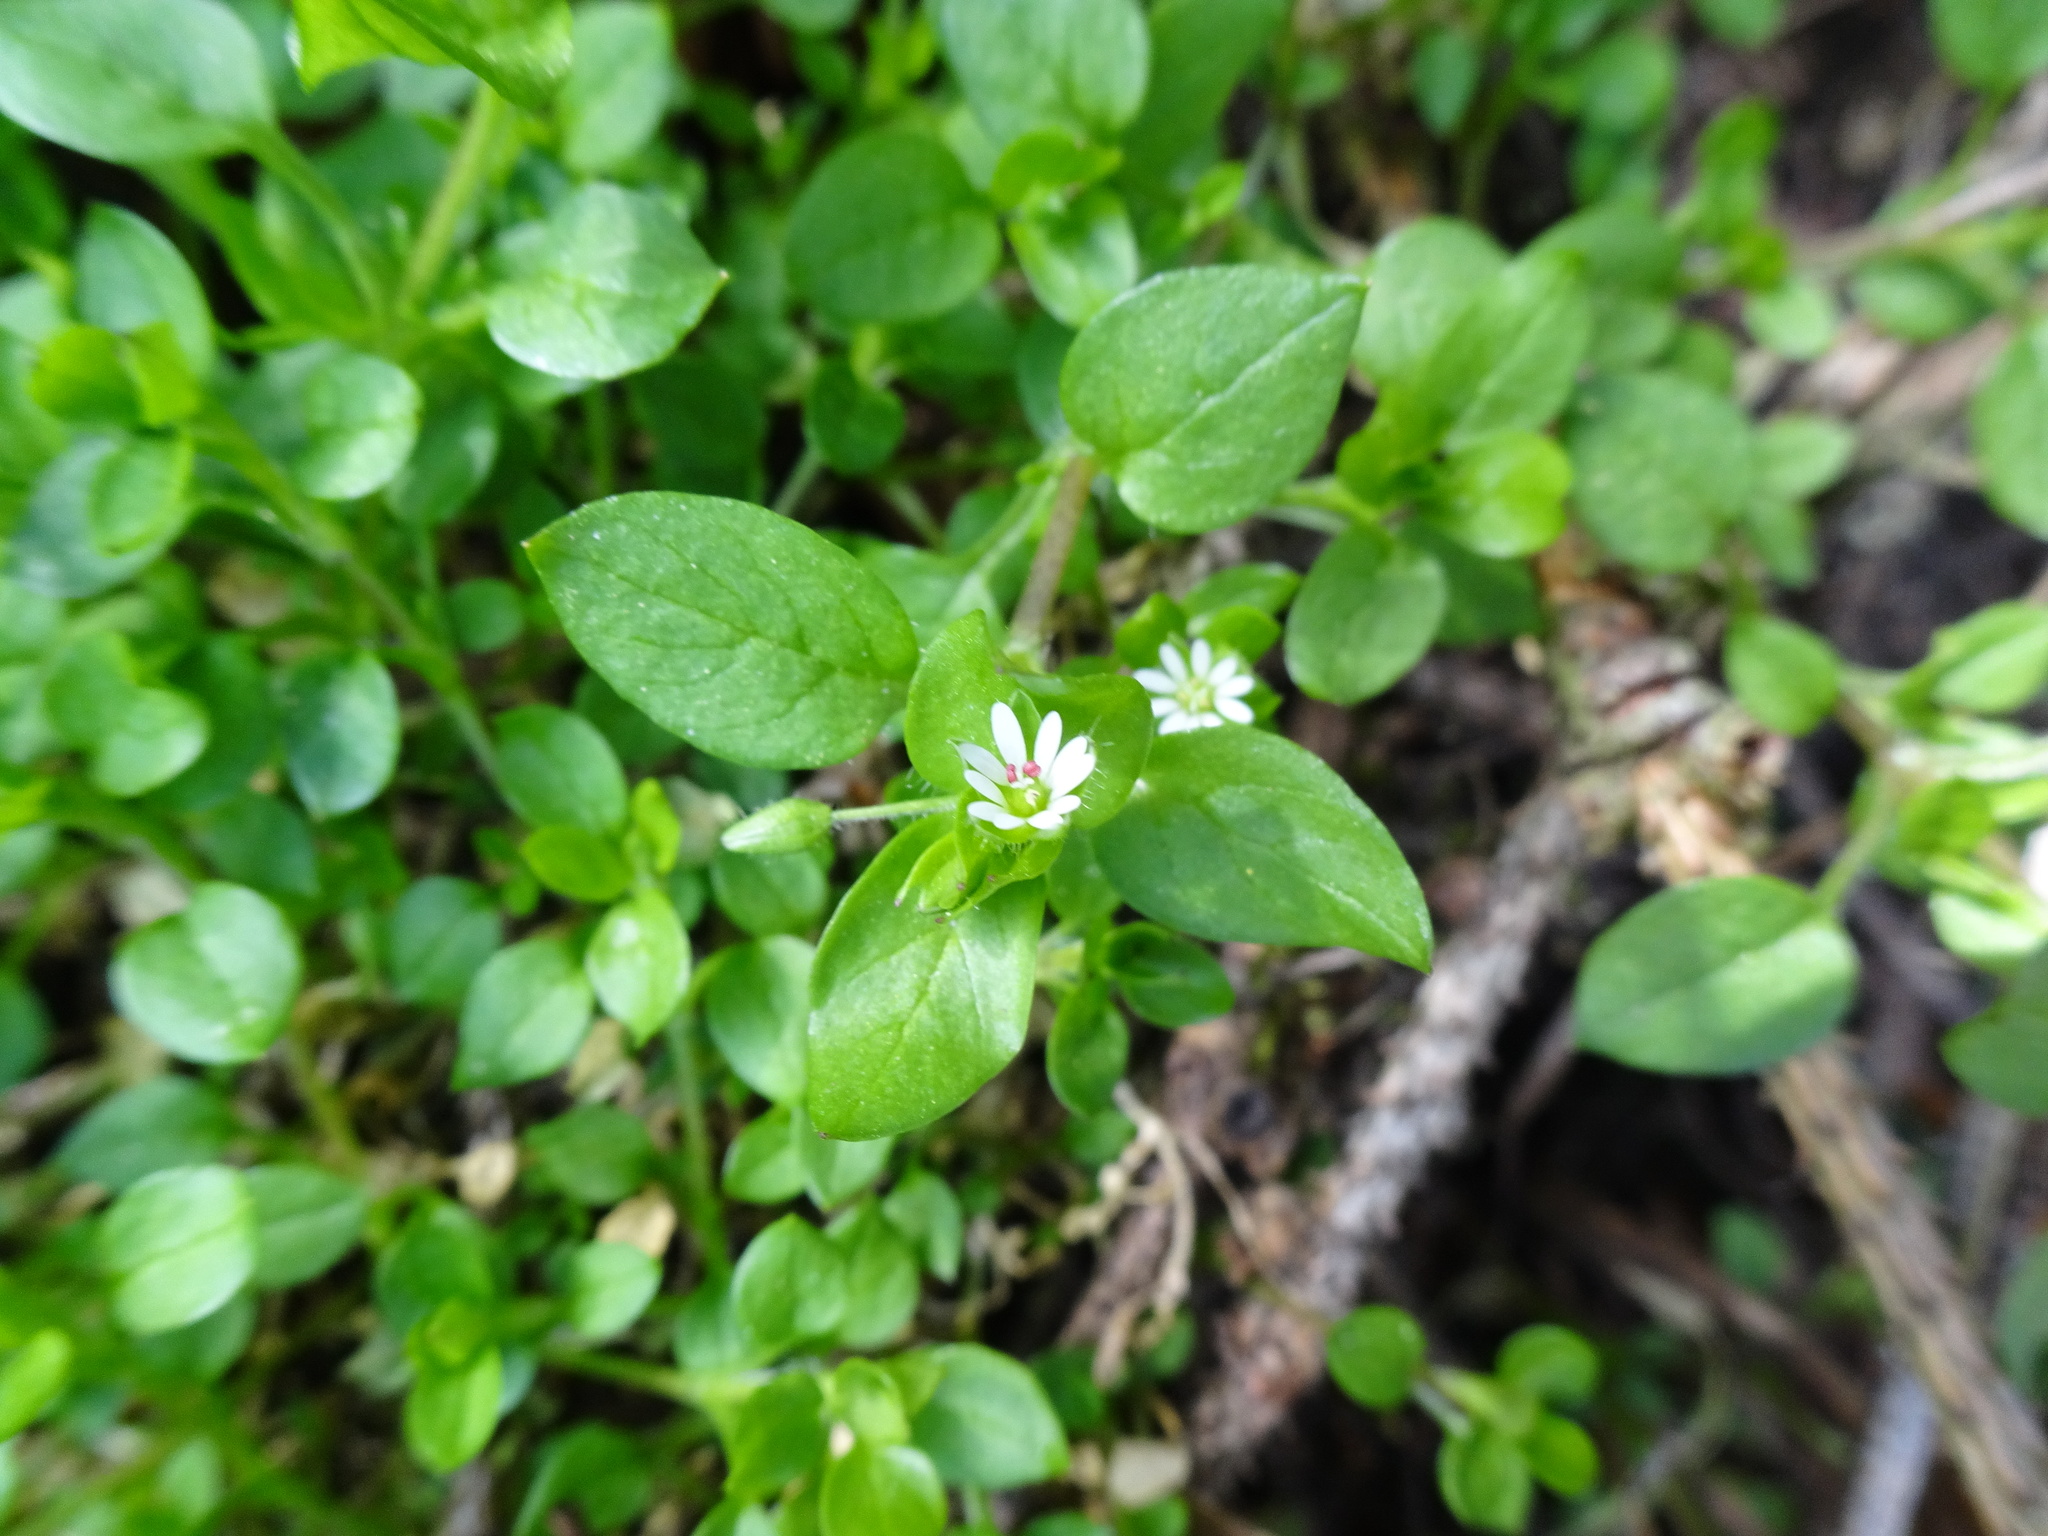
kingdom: Plantae
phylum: Tracheophyta
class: Magnoliopsida
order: Caryophyllales
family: Caryophyllaceae
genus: Stellaria
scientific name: Stellaria media
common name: Common chickweed
